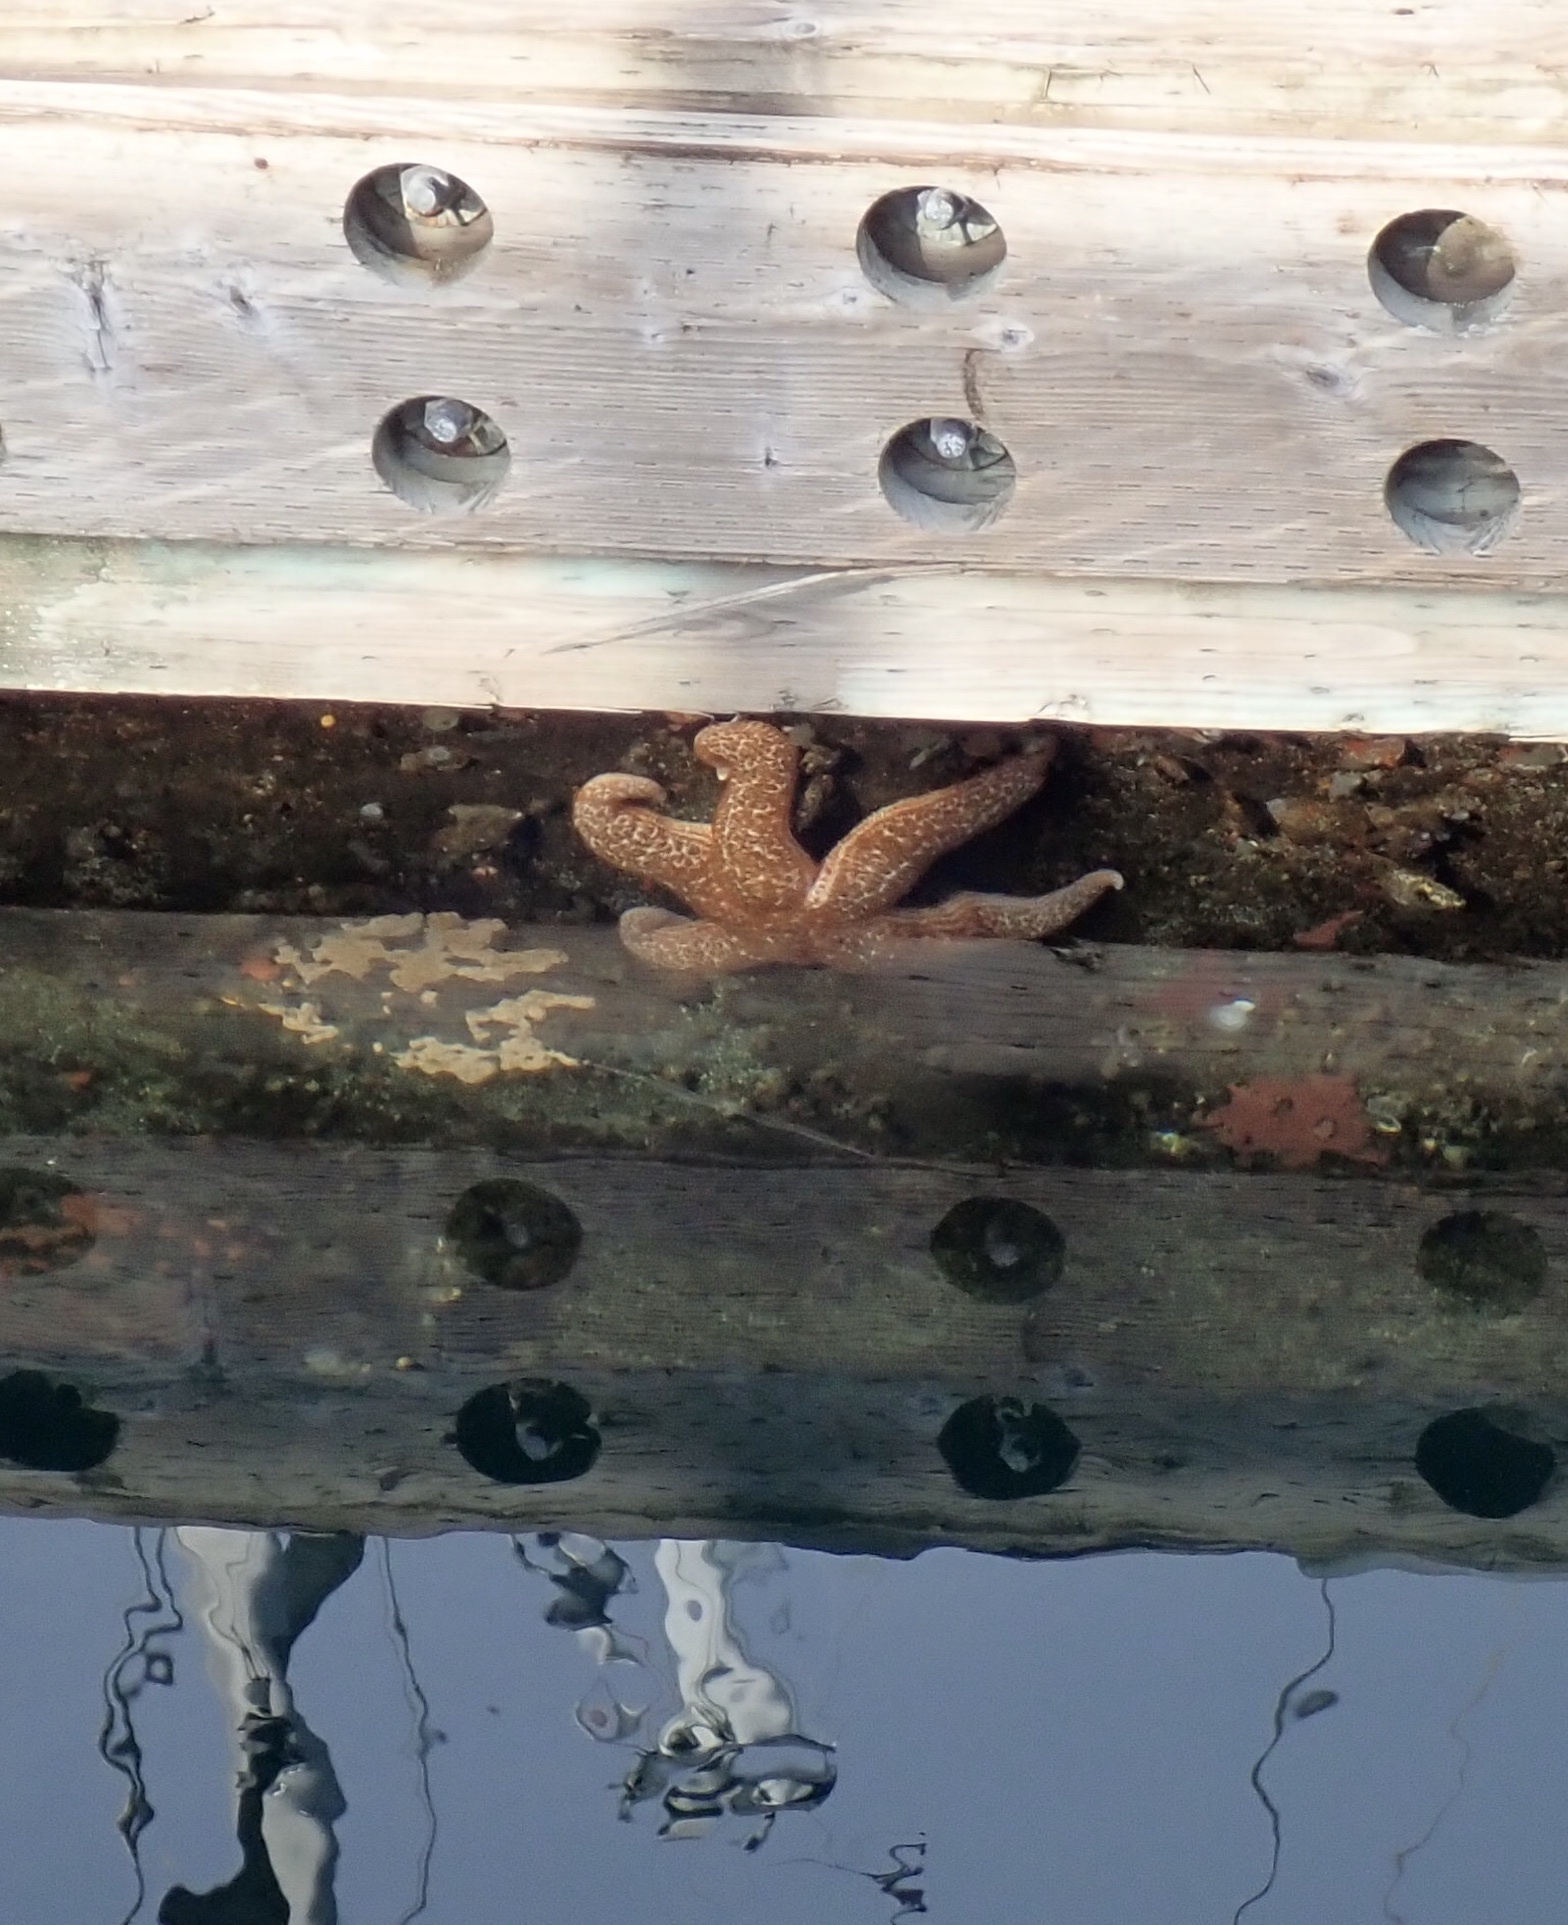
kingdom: Animalia
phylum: Echinodermata
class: Asteroidea
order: Forcipulatida
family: Asteriidae
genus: Evasterias
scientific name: Evasterias troschelii
